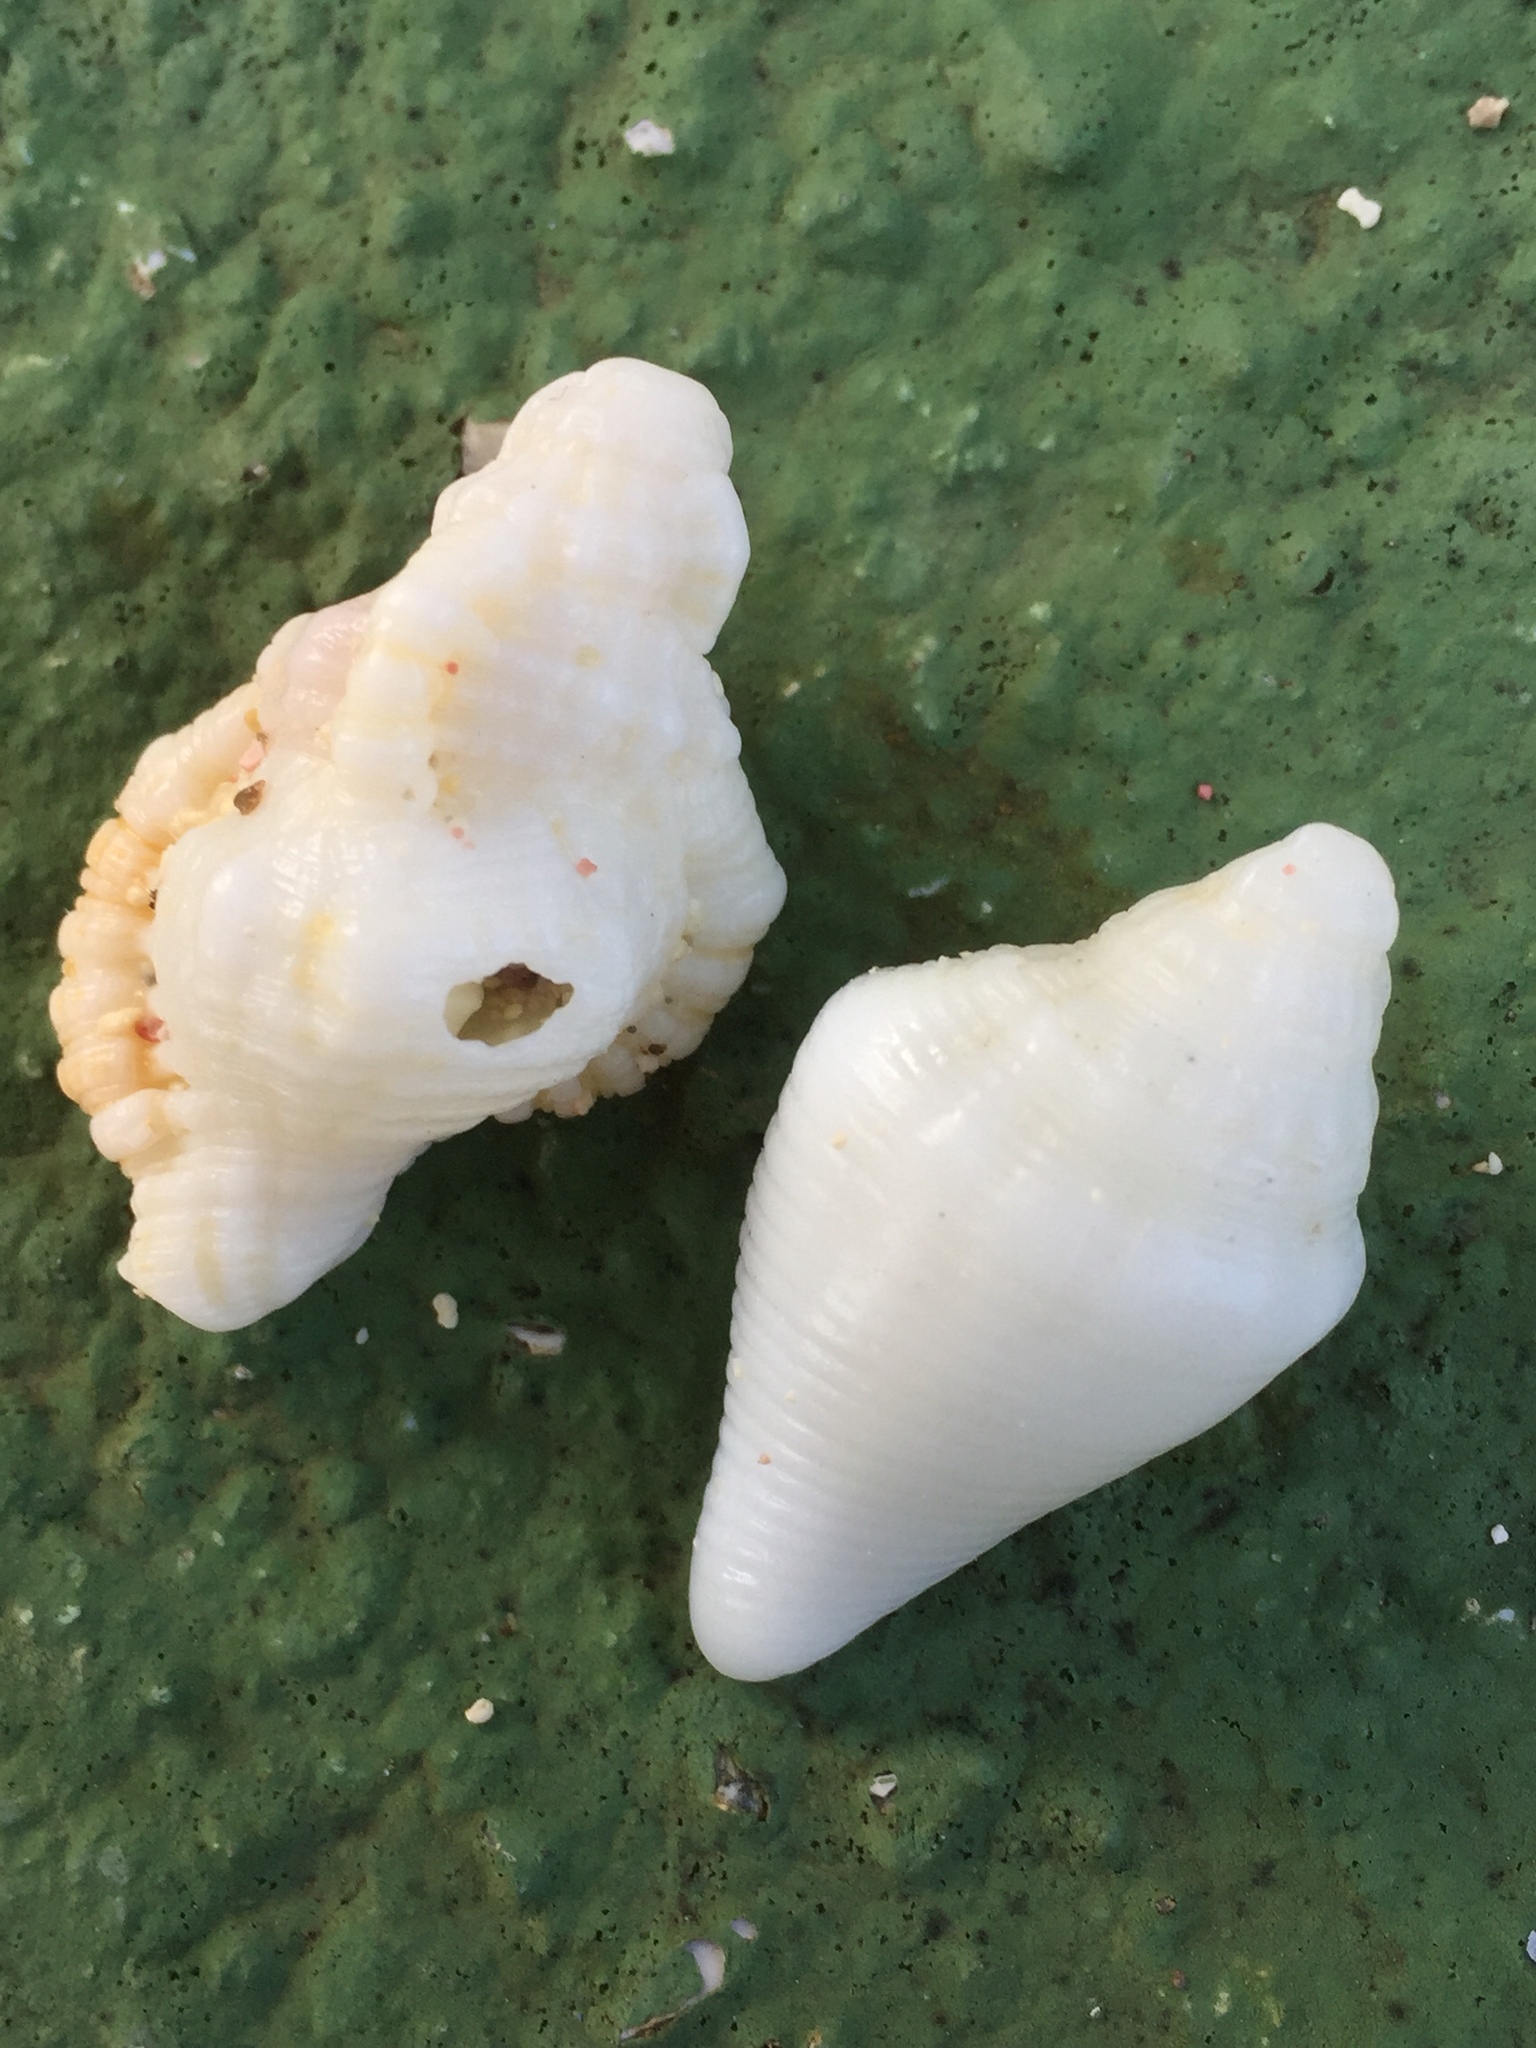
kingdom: Animalia
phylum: Mollusca
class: Gastropoda
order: Littorinimorpha
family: Cymatiidae
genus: Monoplex
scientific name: Monoplex nicobaricus
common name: Goldmouth triton
